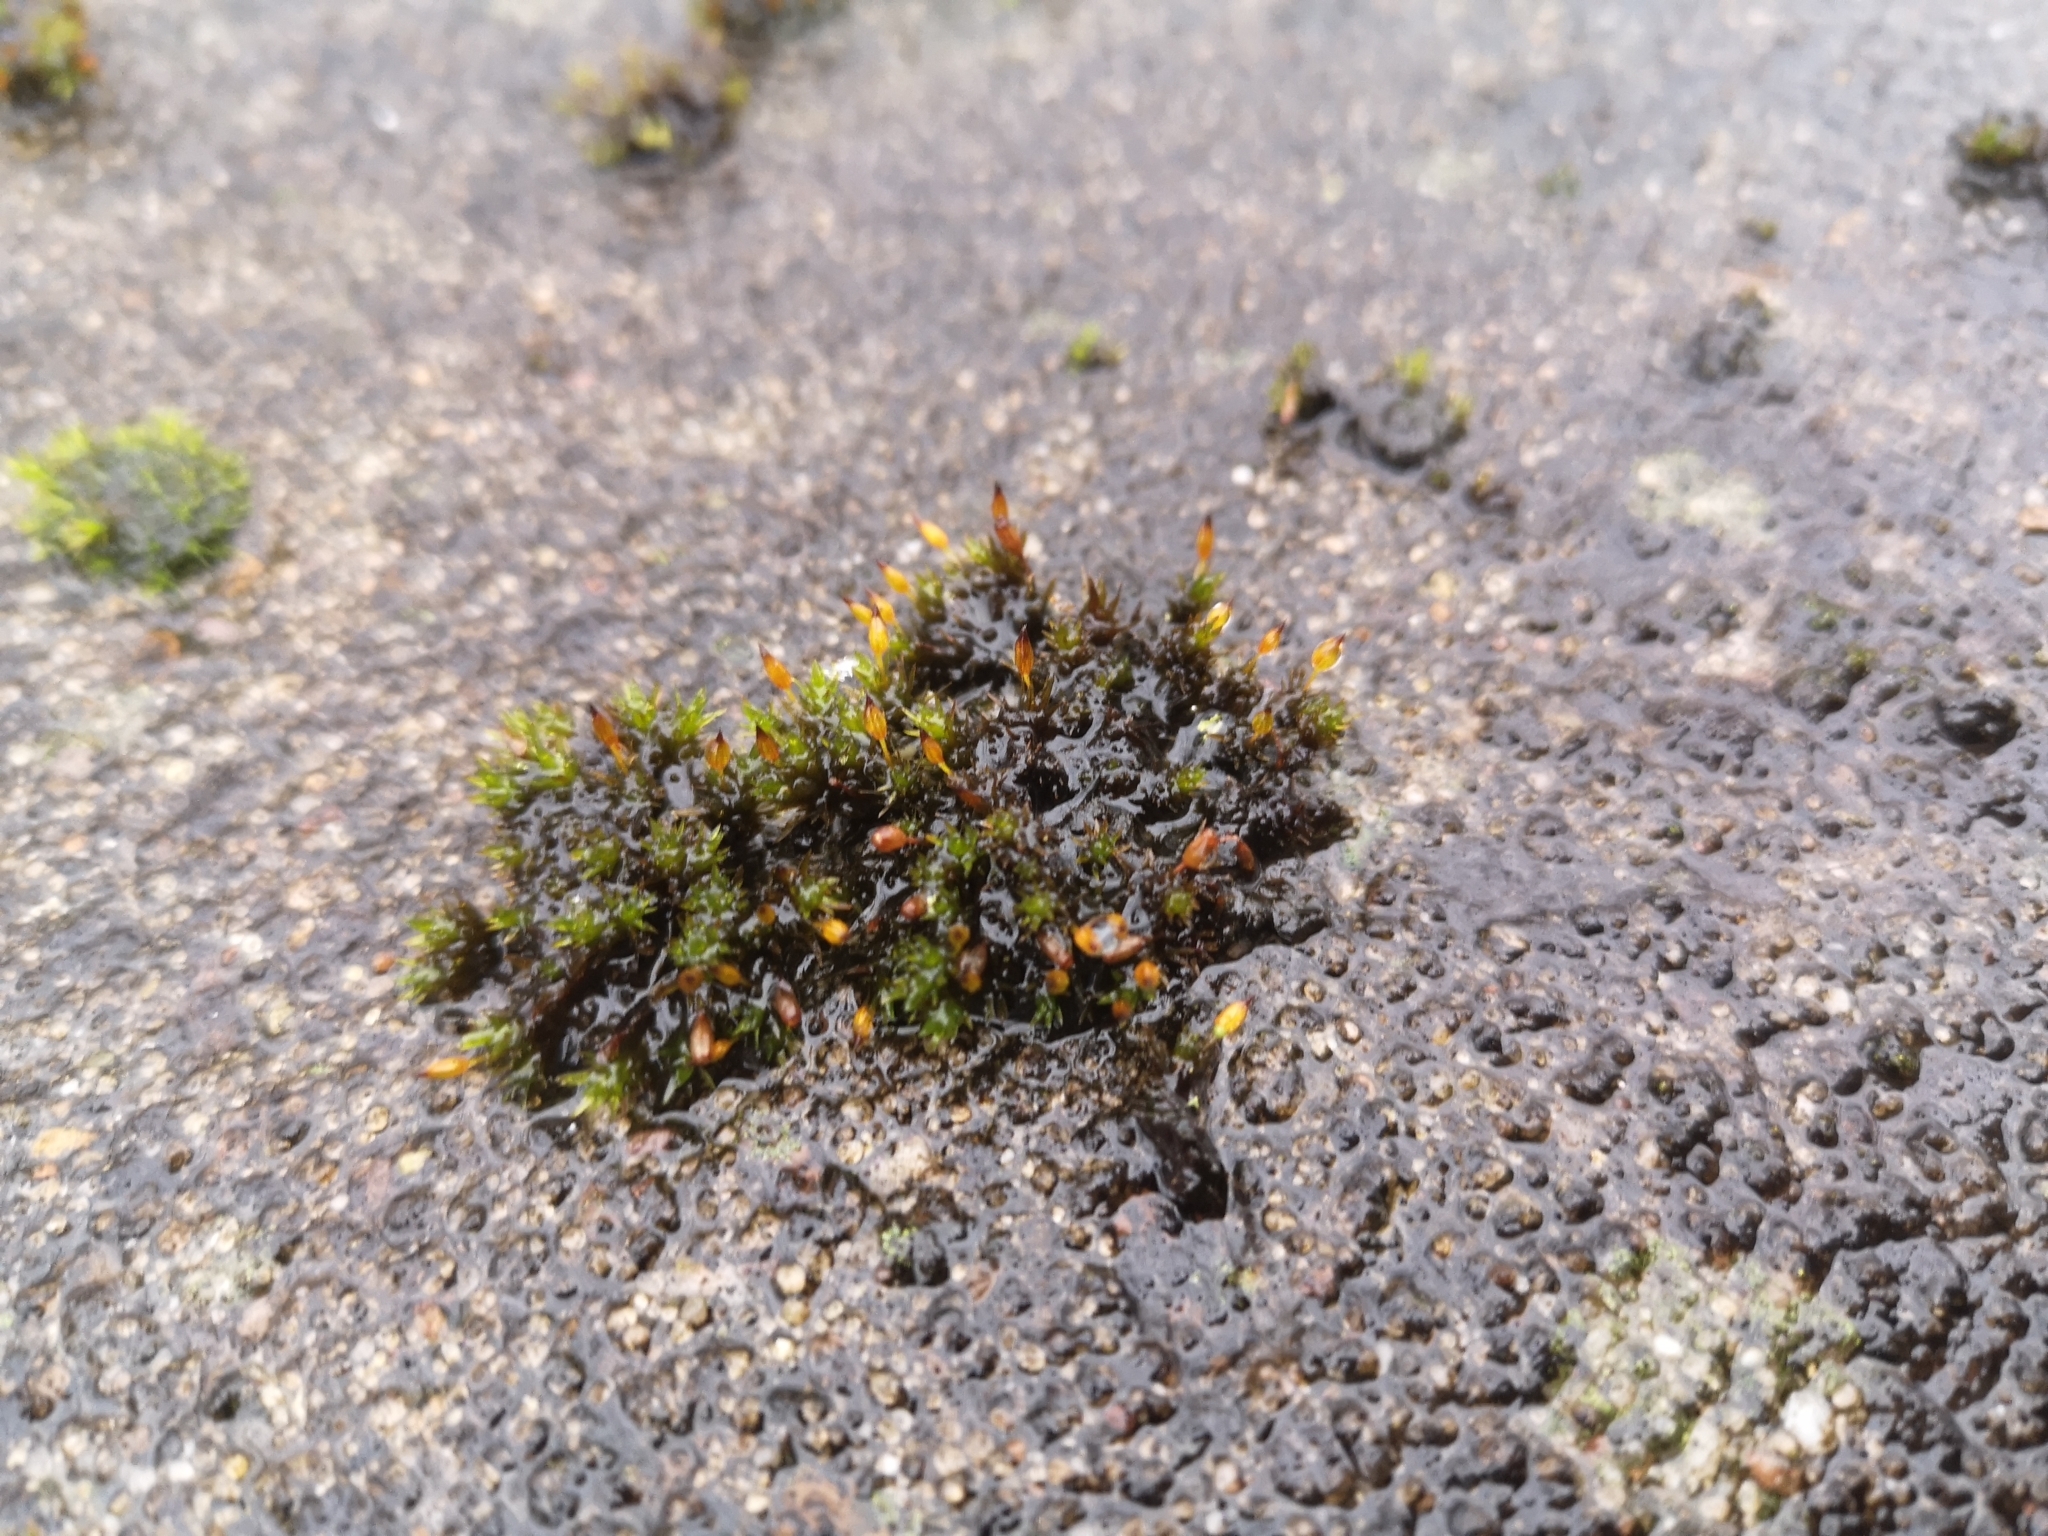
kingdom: Plantae
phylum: Bryophyta
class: Bryopsida
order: Orthotrichales
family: Orthotrichaceae
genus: Orthotrichum
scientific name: Orthotrichum anomalum
